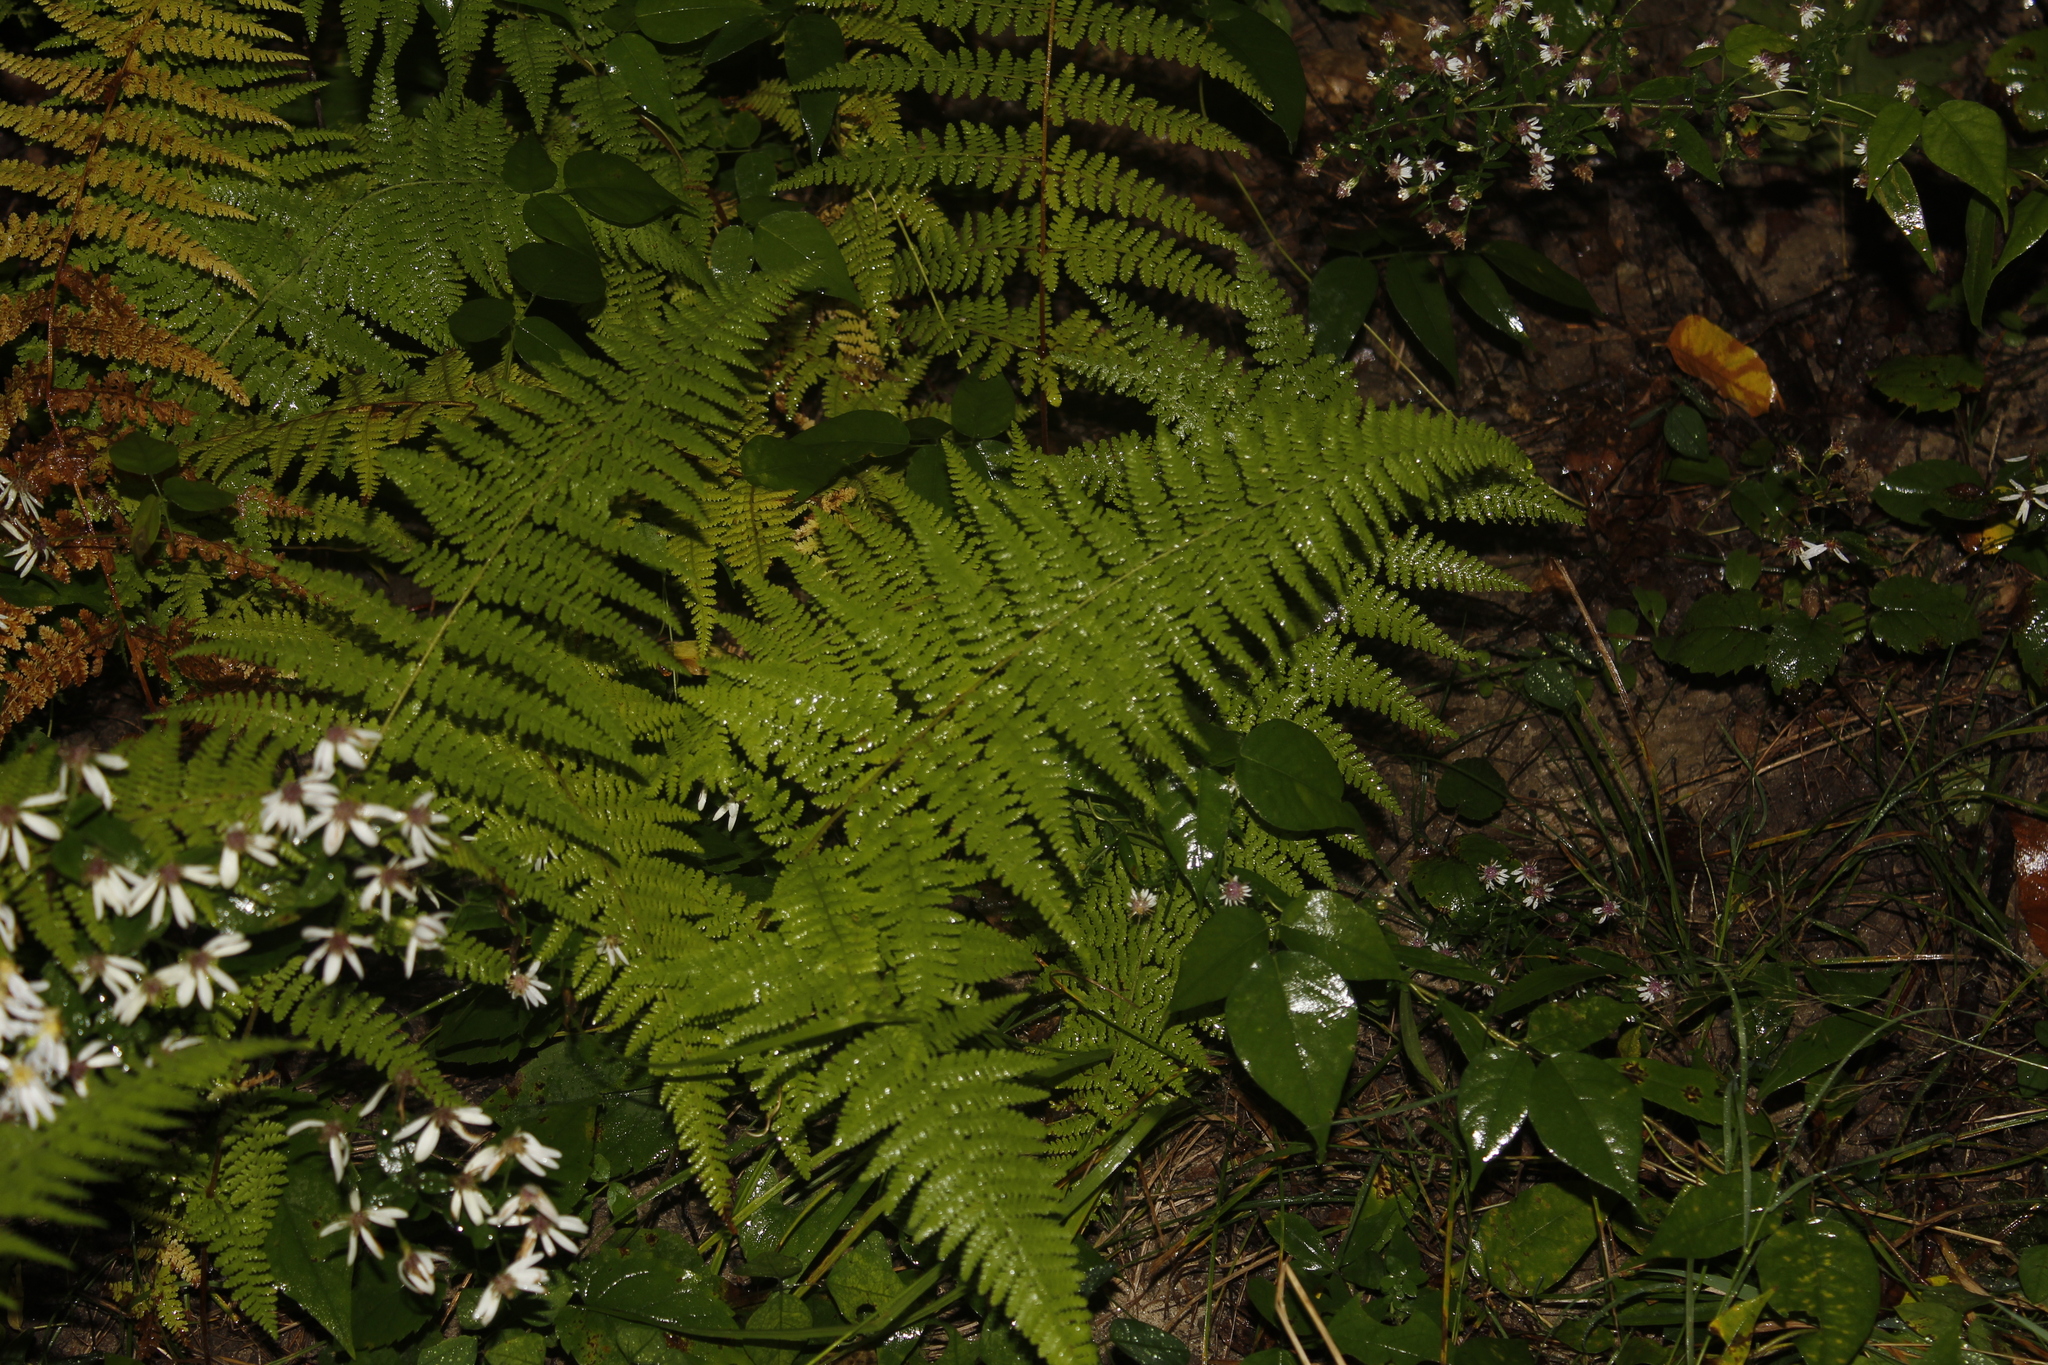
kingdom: Plantae
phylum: Tracheophyta
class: Polypodiopsida
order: Polypodiales
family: Dennstaedtiaceae
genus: Sitobolium
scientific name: Sitobolium punctilobum
